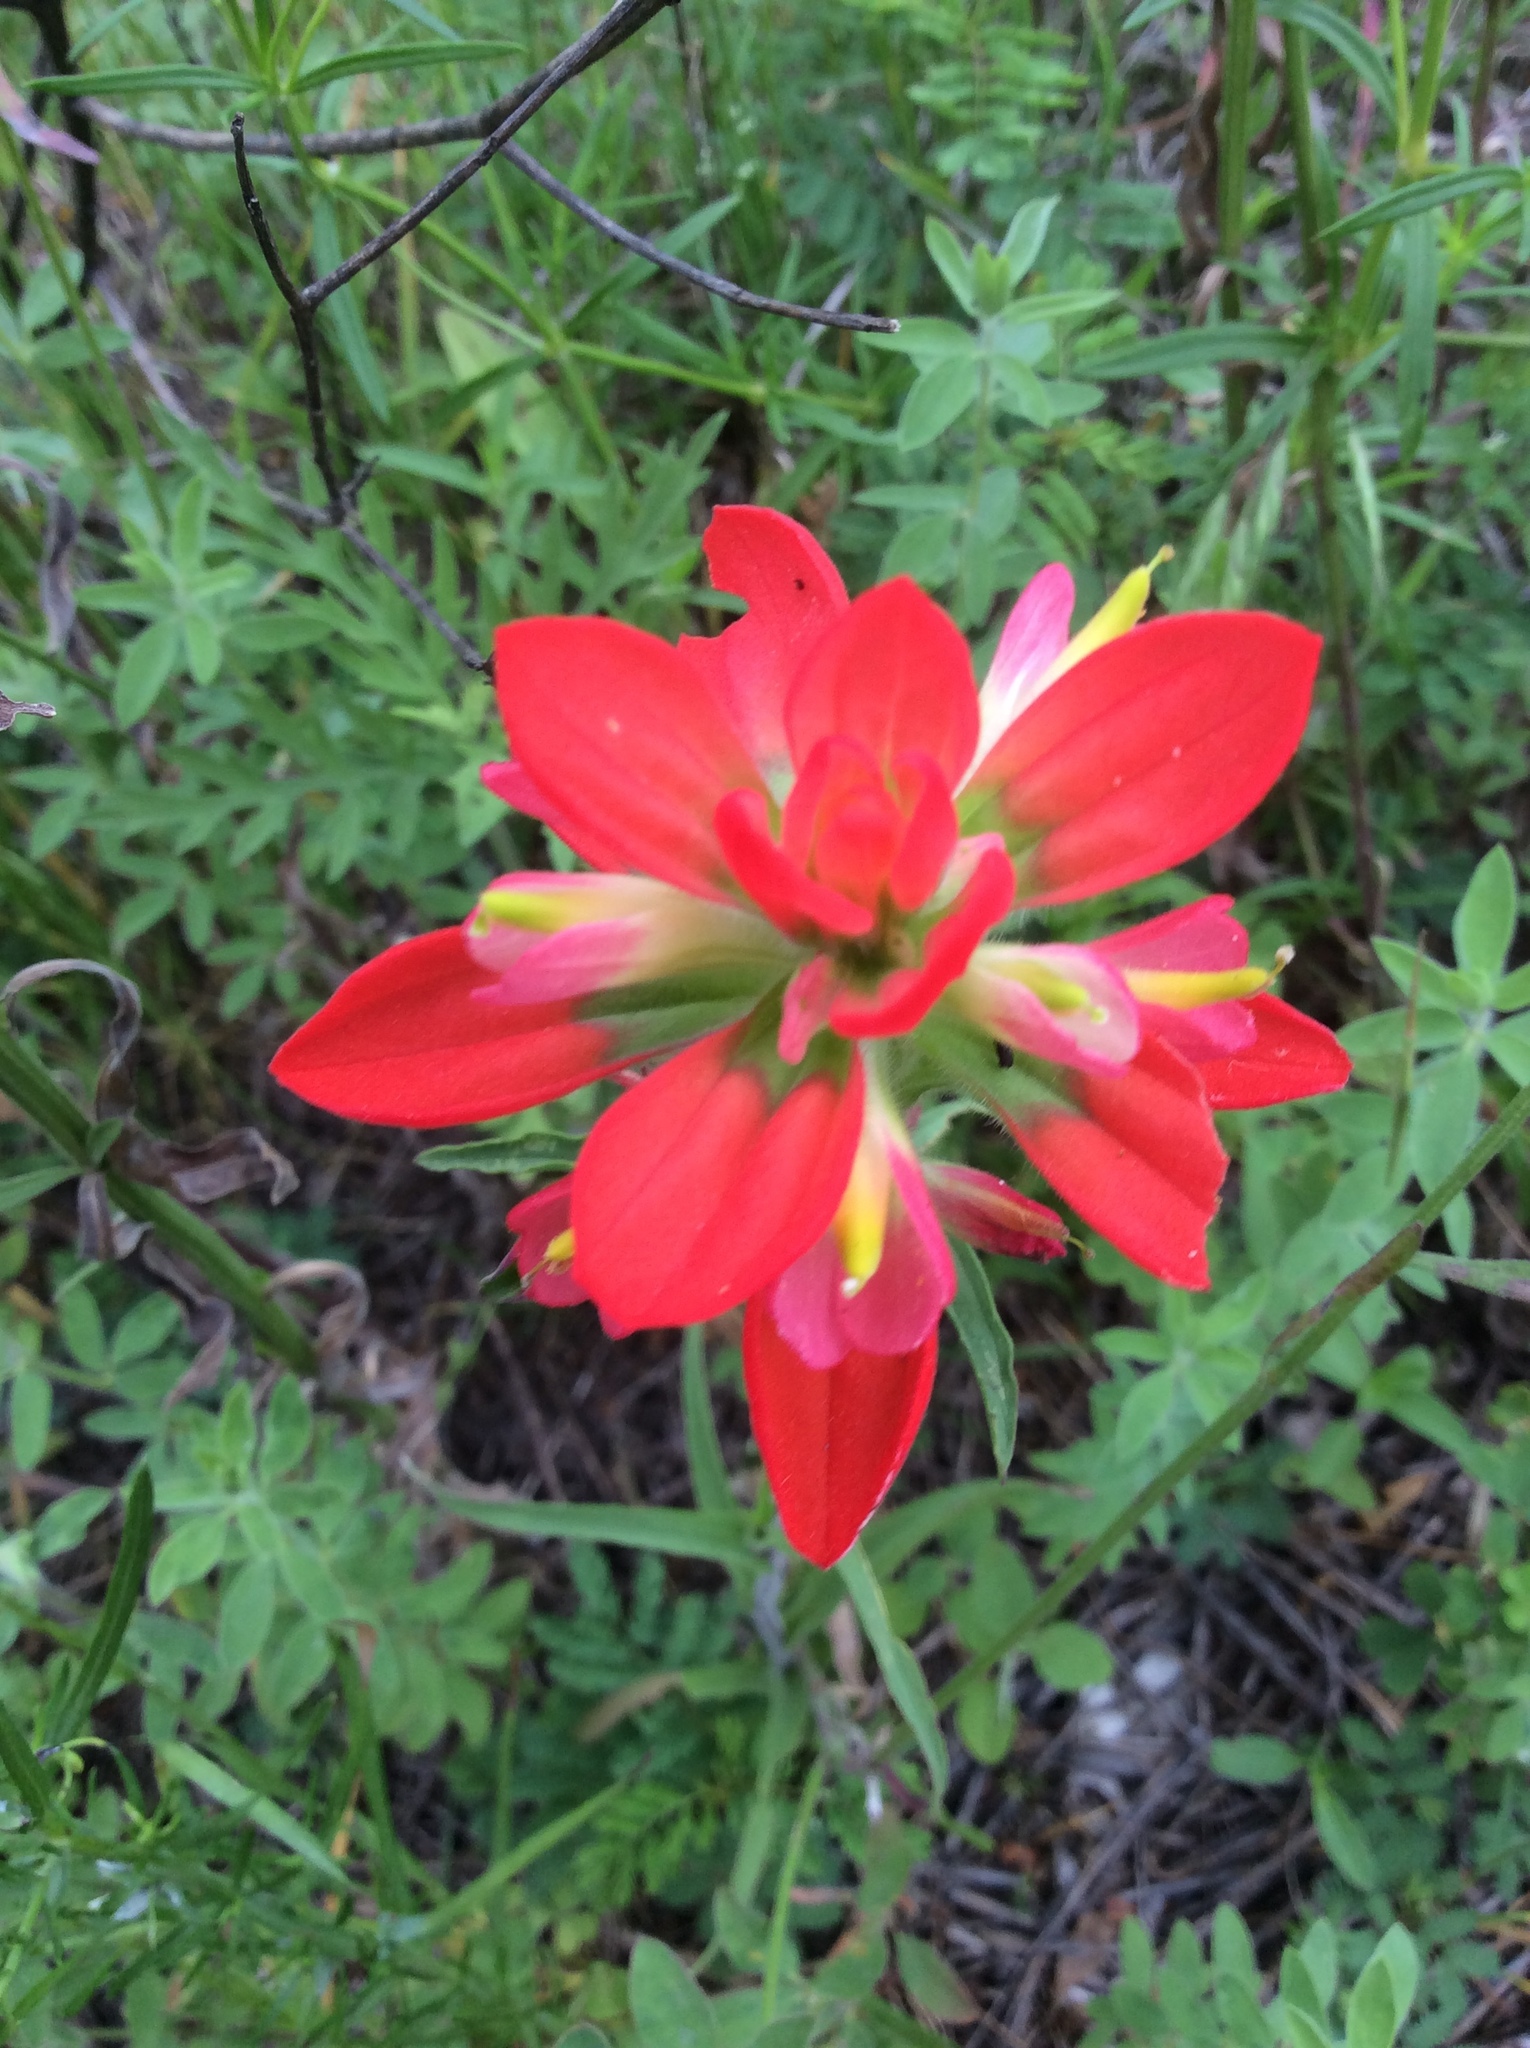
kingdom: Plantae
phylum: Tracheophyta
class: Magnoliopsida
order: Lamiales
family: Orobanchaceae
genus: Castilleja
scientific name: Castilleja indivisa
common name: Texas paintbrush
